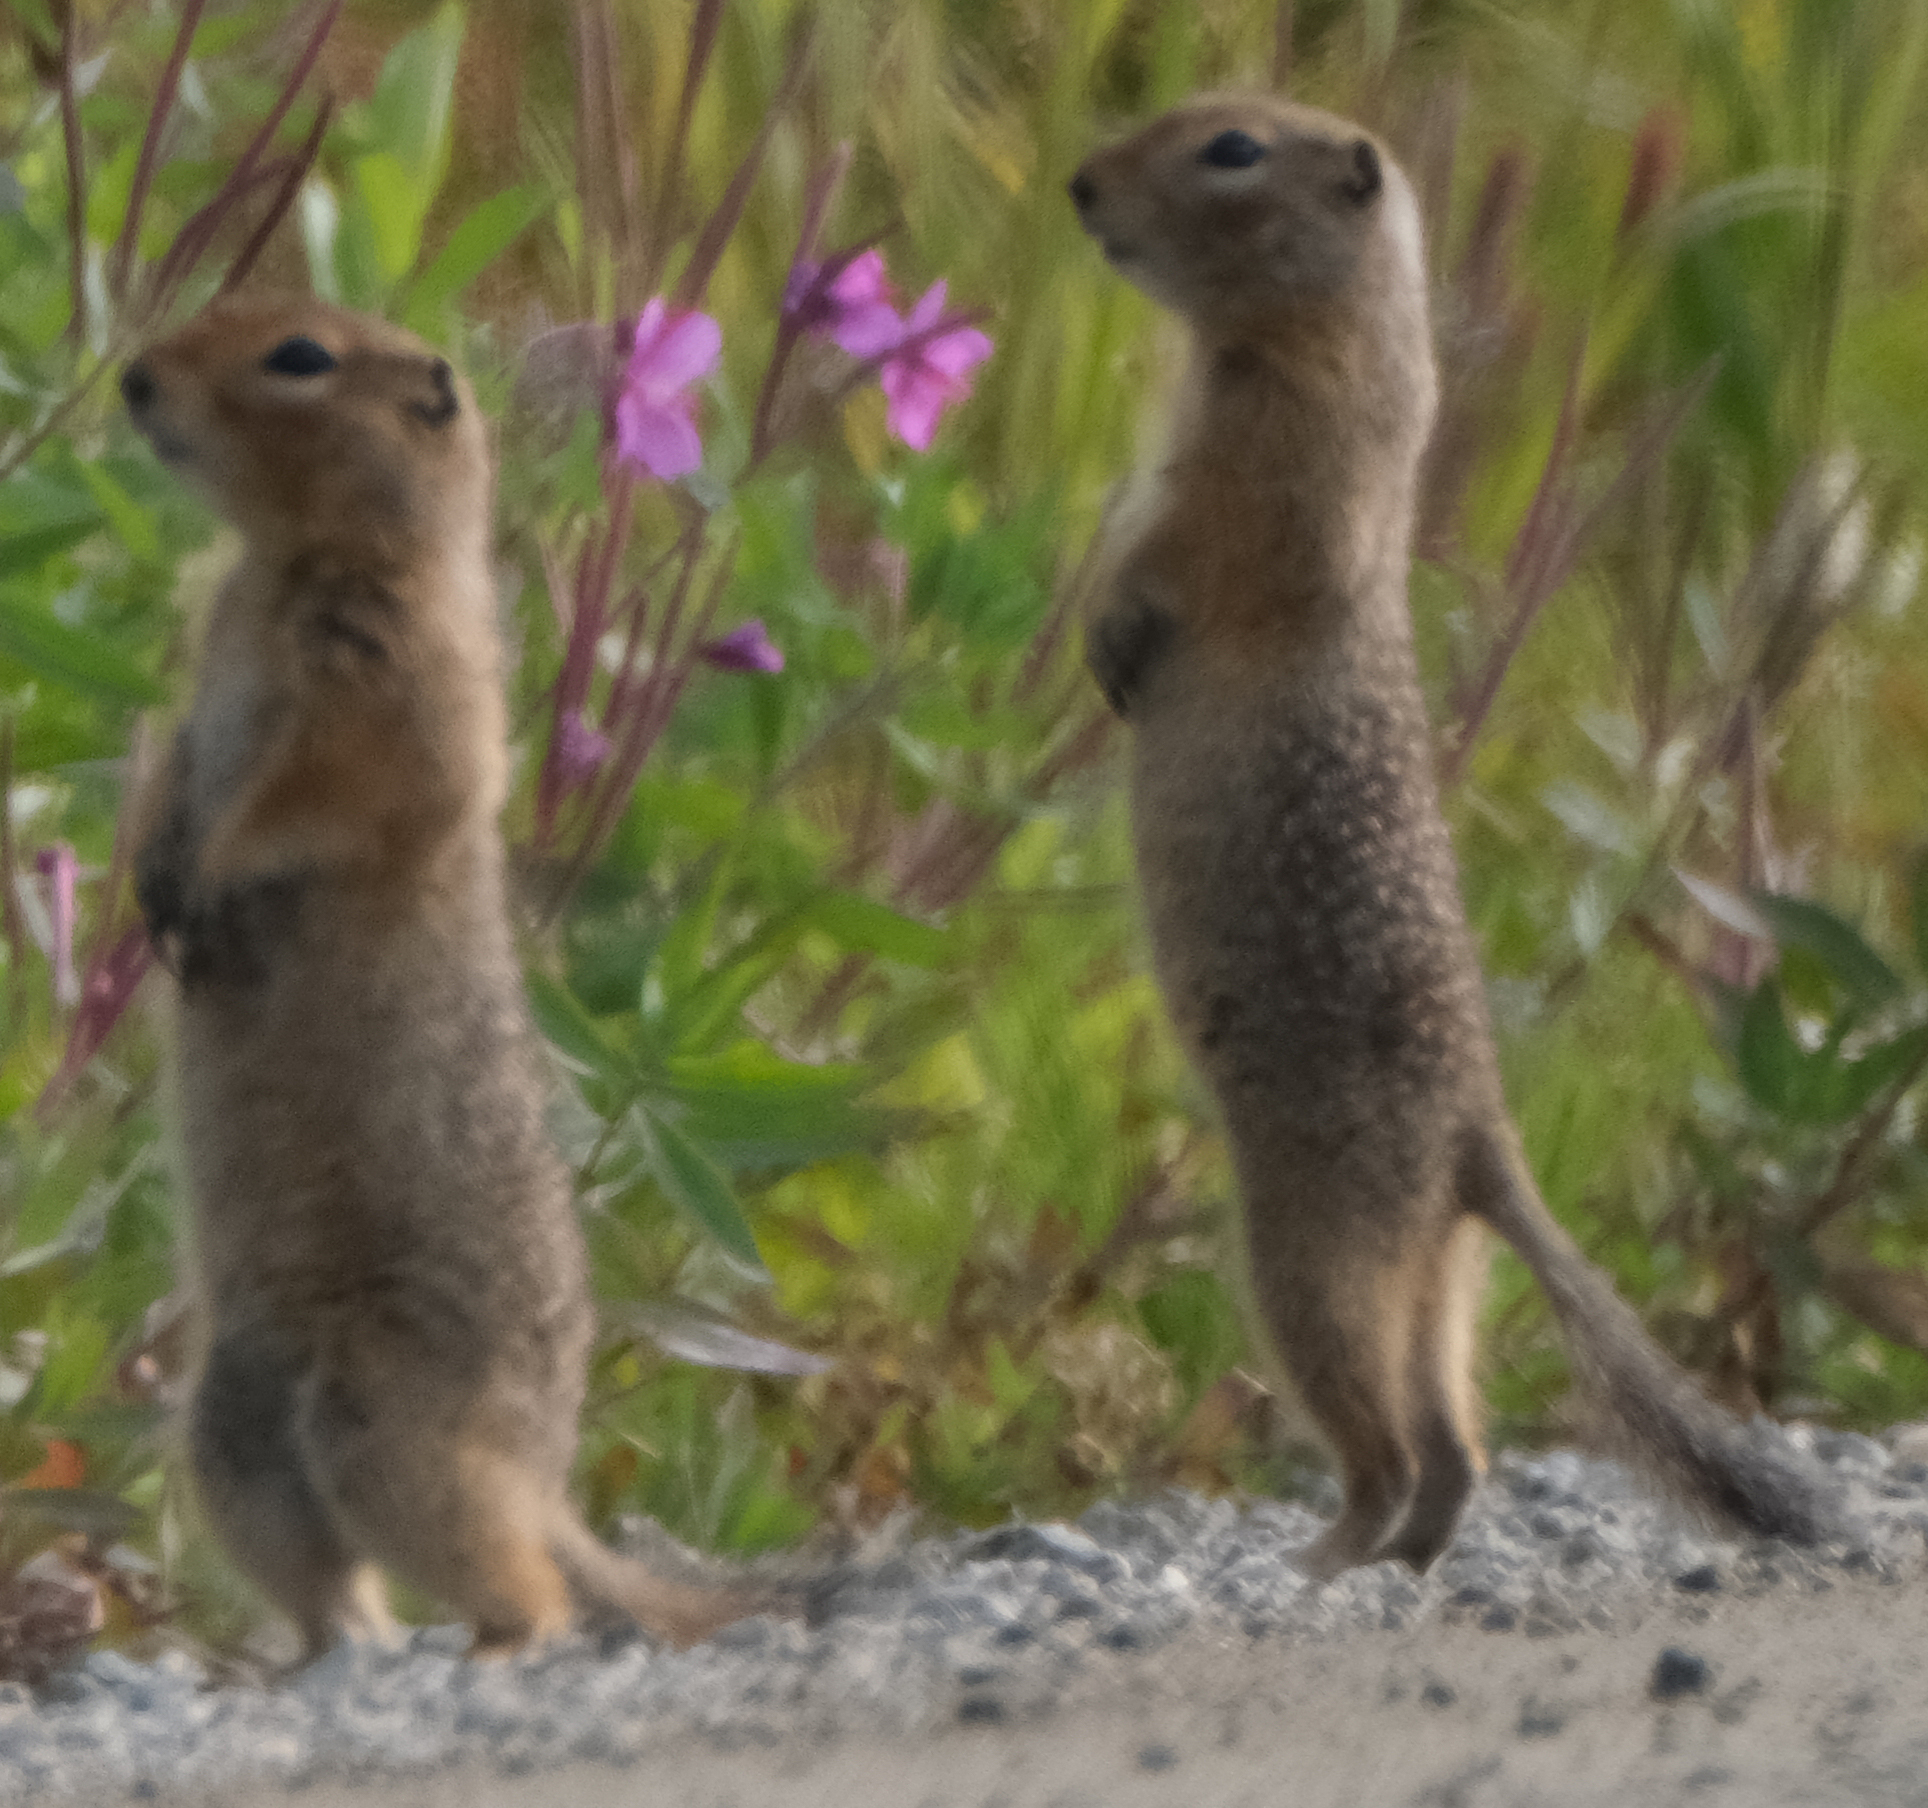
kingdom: Animalia
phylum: Chordata
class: Mammalia
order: Rodentia
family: Sciuridae
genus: Urocitellus
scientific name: Urocitellus parryii
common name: Arctic ground squirrel
